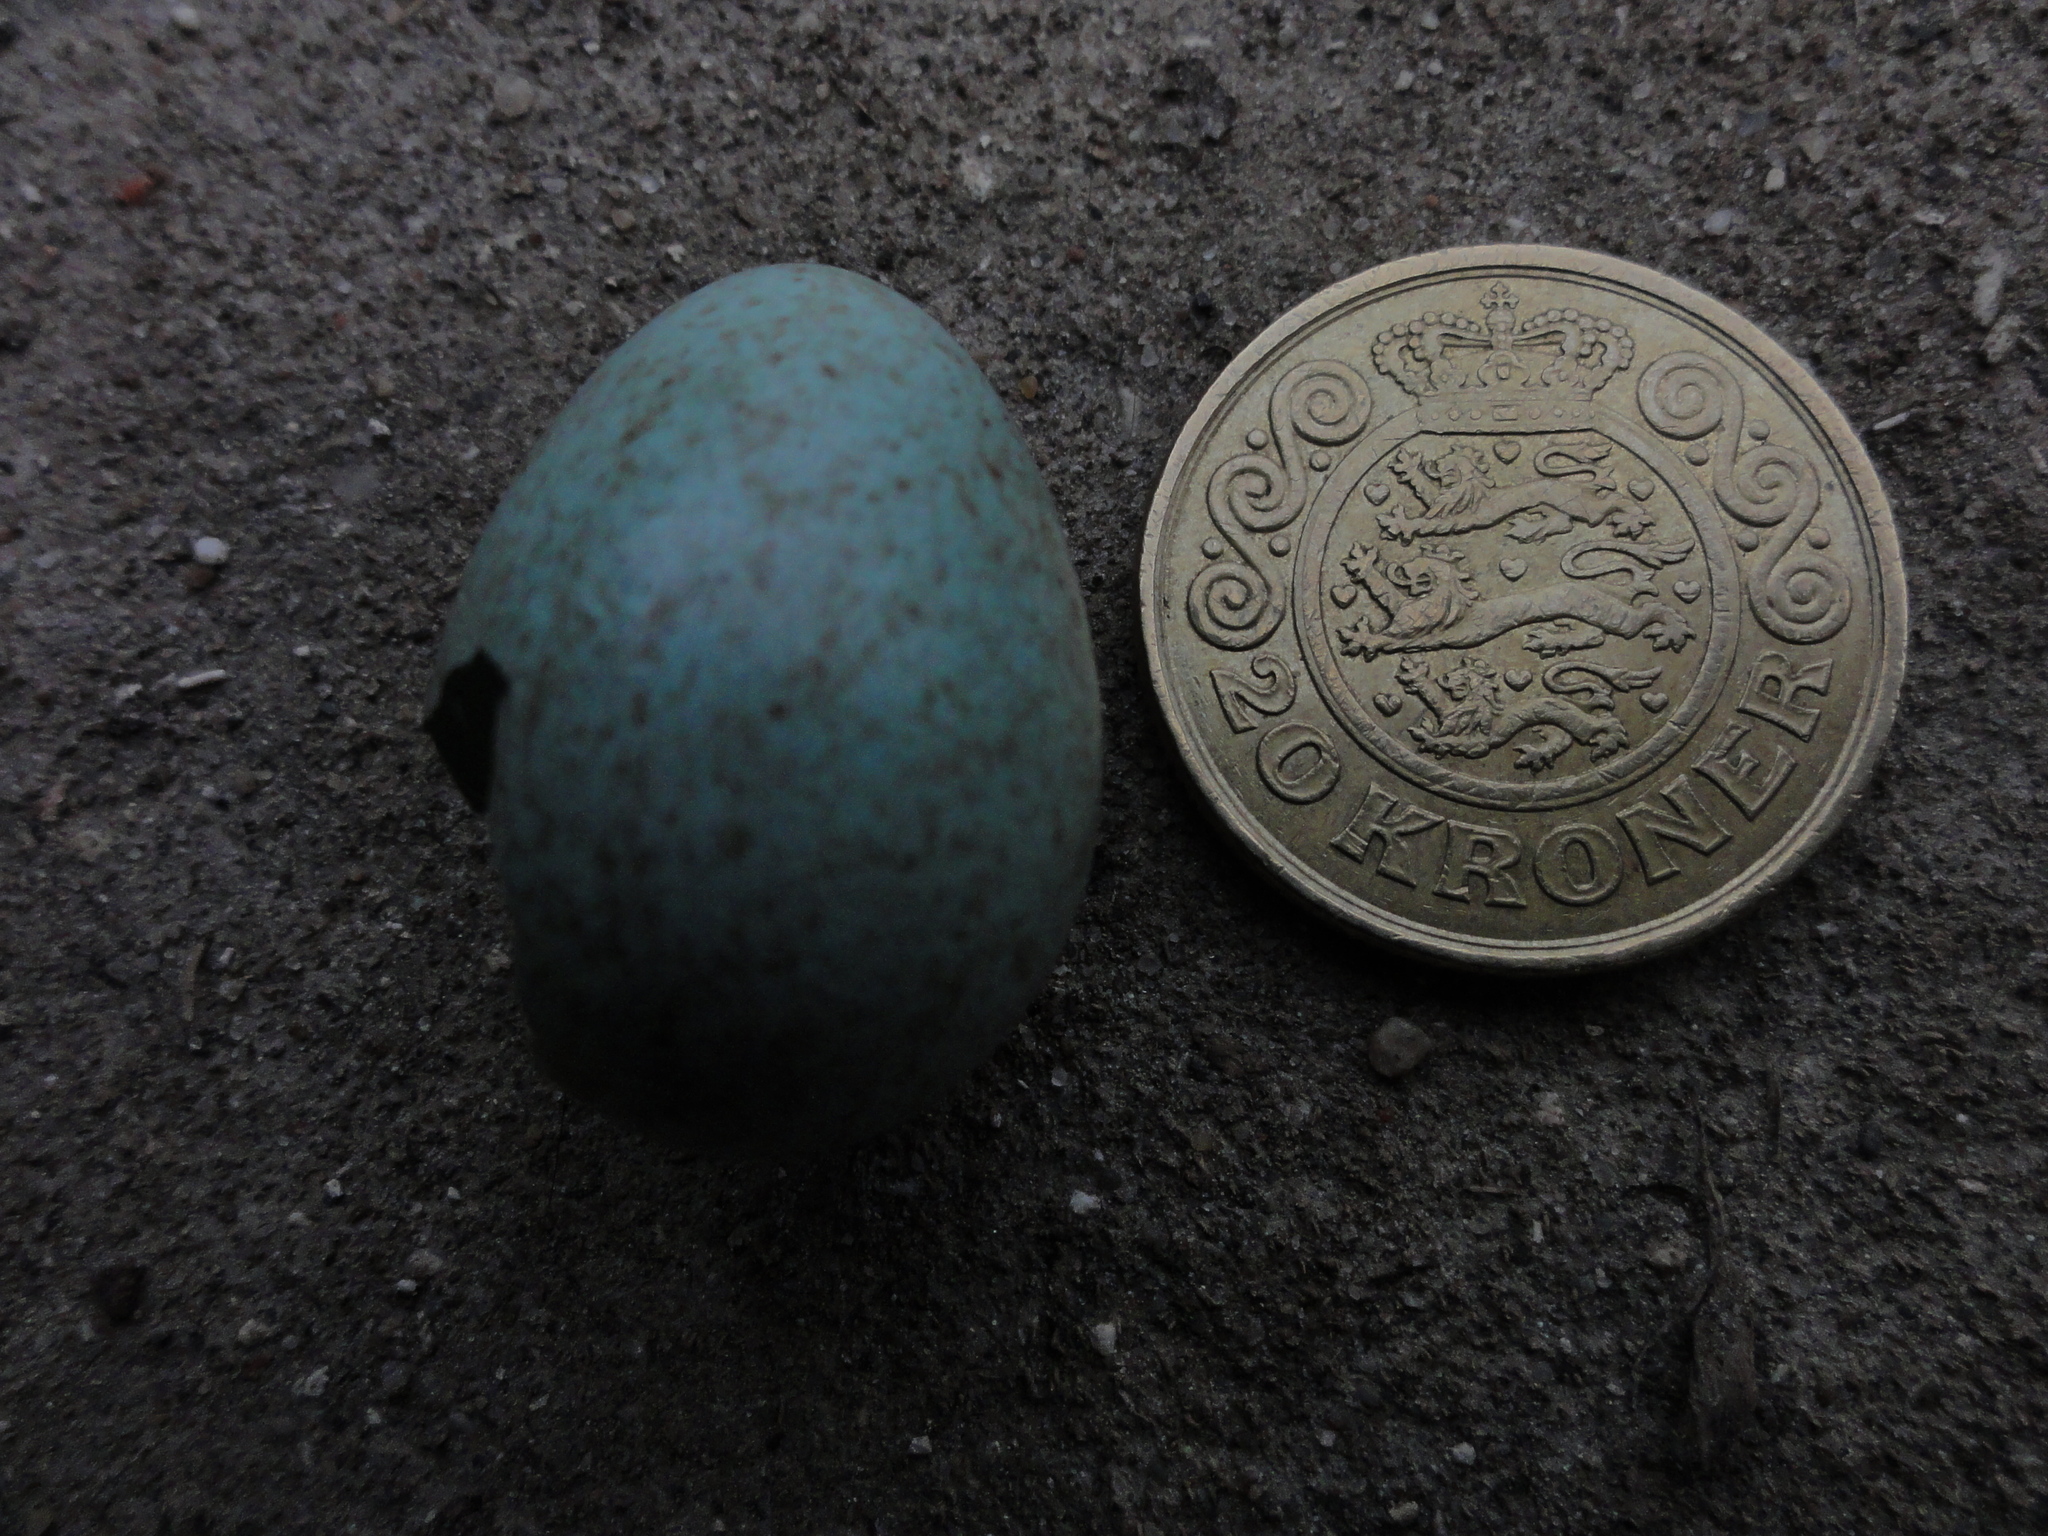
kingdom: Animalia
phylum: Chordata
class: Aves
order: Passeriformes
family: Turdidae
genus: Turdus
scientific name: Turdus merula
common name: Common blackbird
